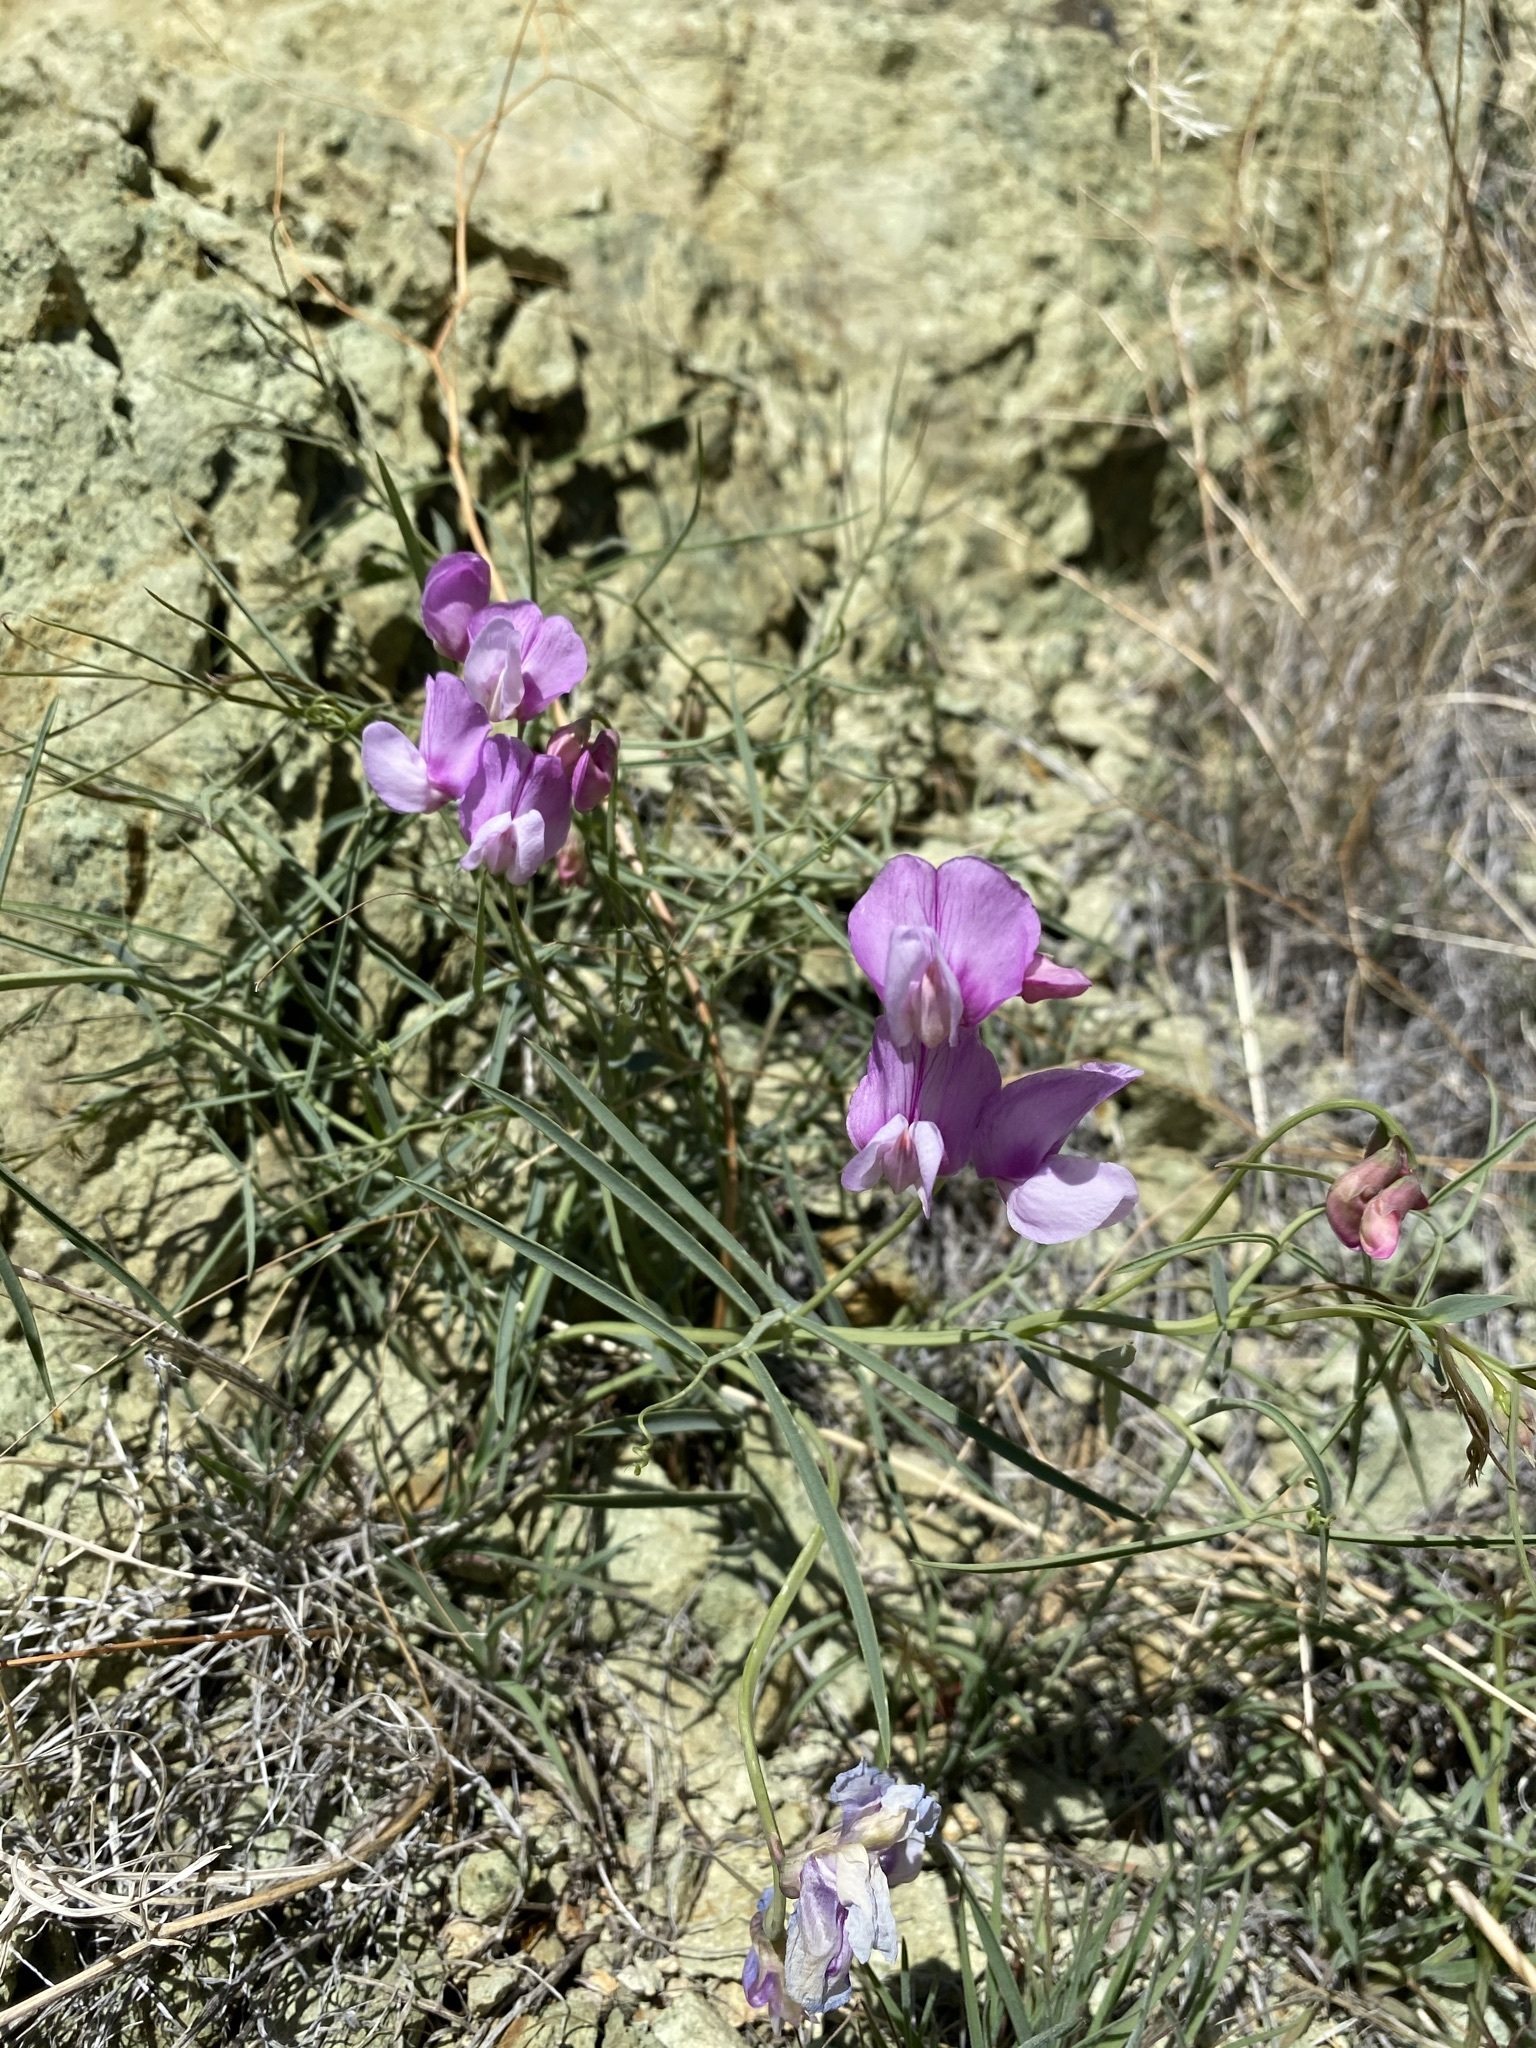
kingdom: Plantae
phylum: Tracheophyta
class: Magnoliopsida
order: Fabales
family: Fabaceae
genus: Lathyrus
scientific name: Lathyrus pauciflorus
